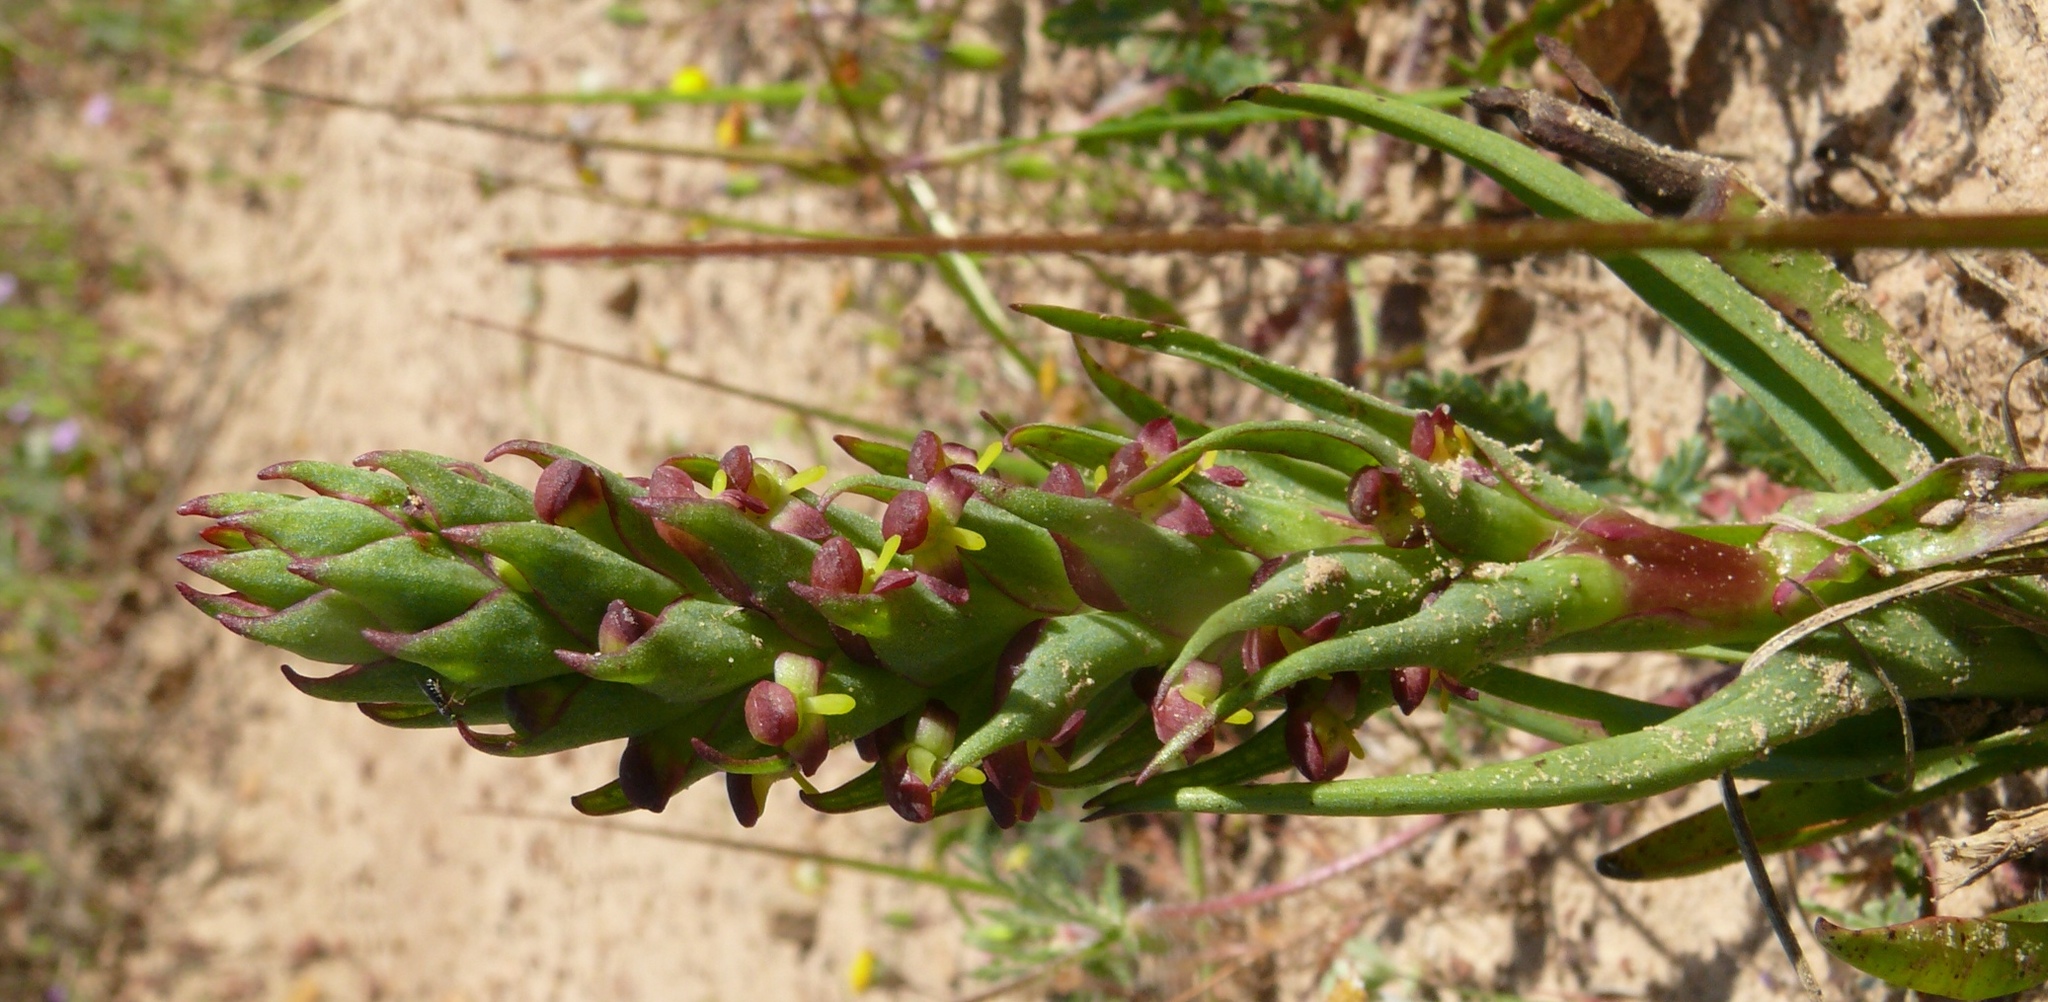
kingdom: Plantae
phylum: Tracheophyta
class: Liliopsida
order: Asparagales
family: Orchidaceae
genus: Disa
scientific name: Disa bracteata
